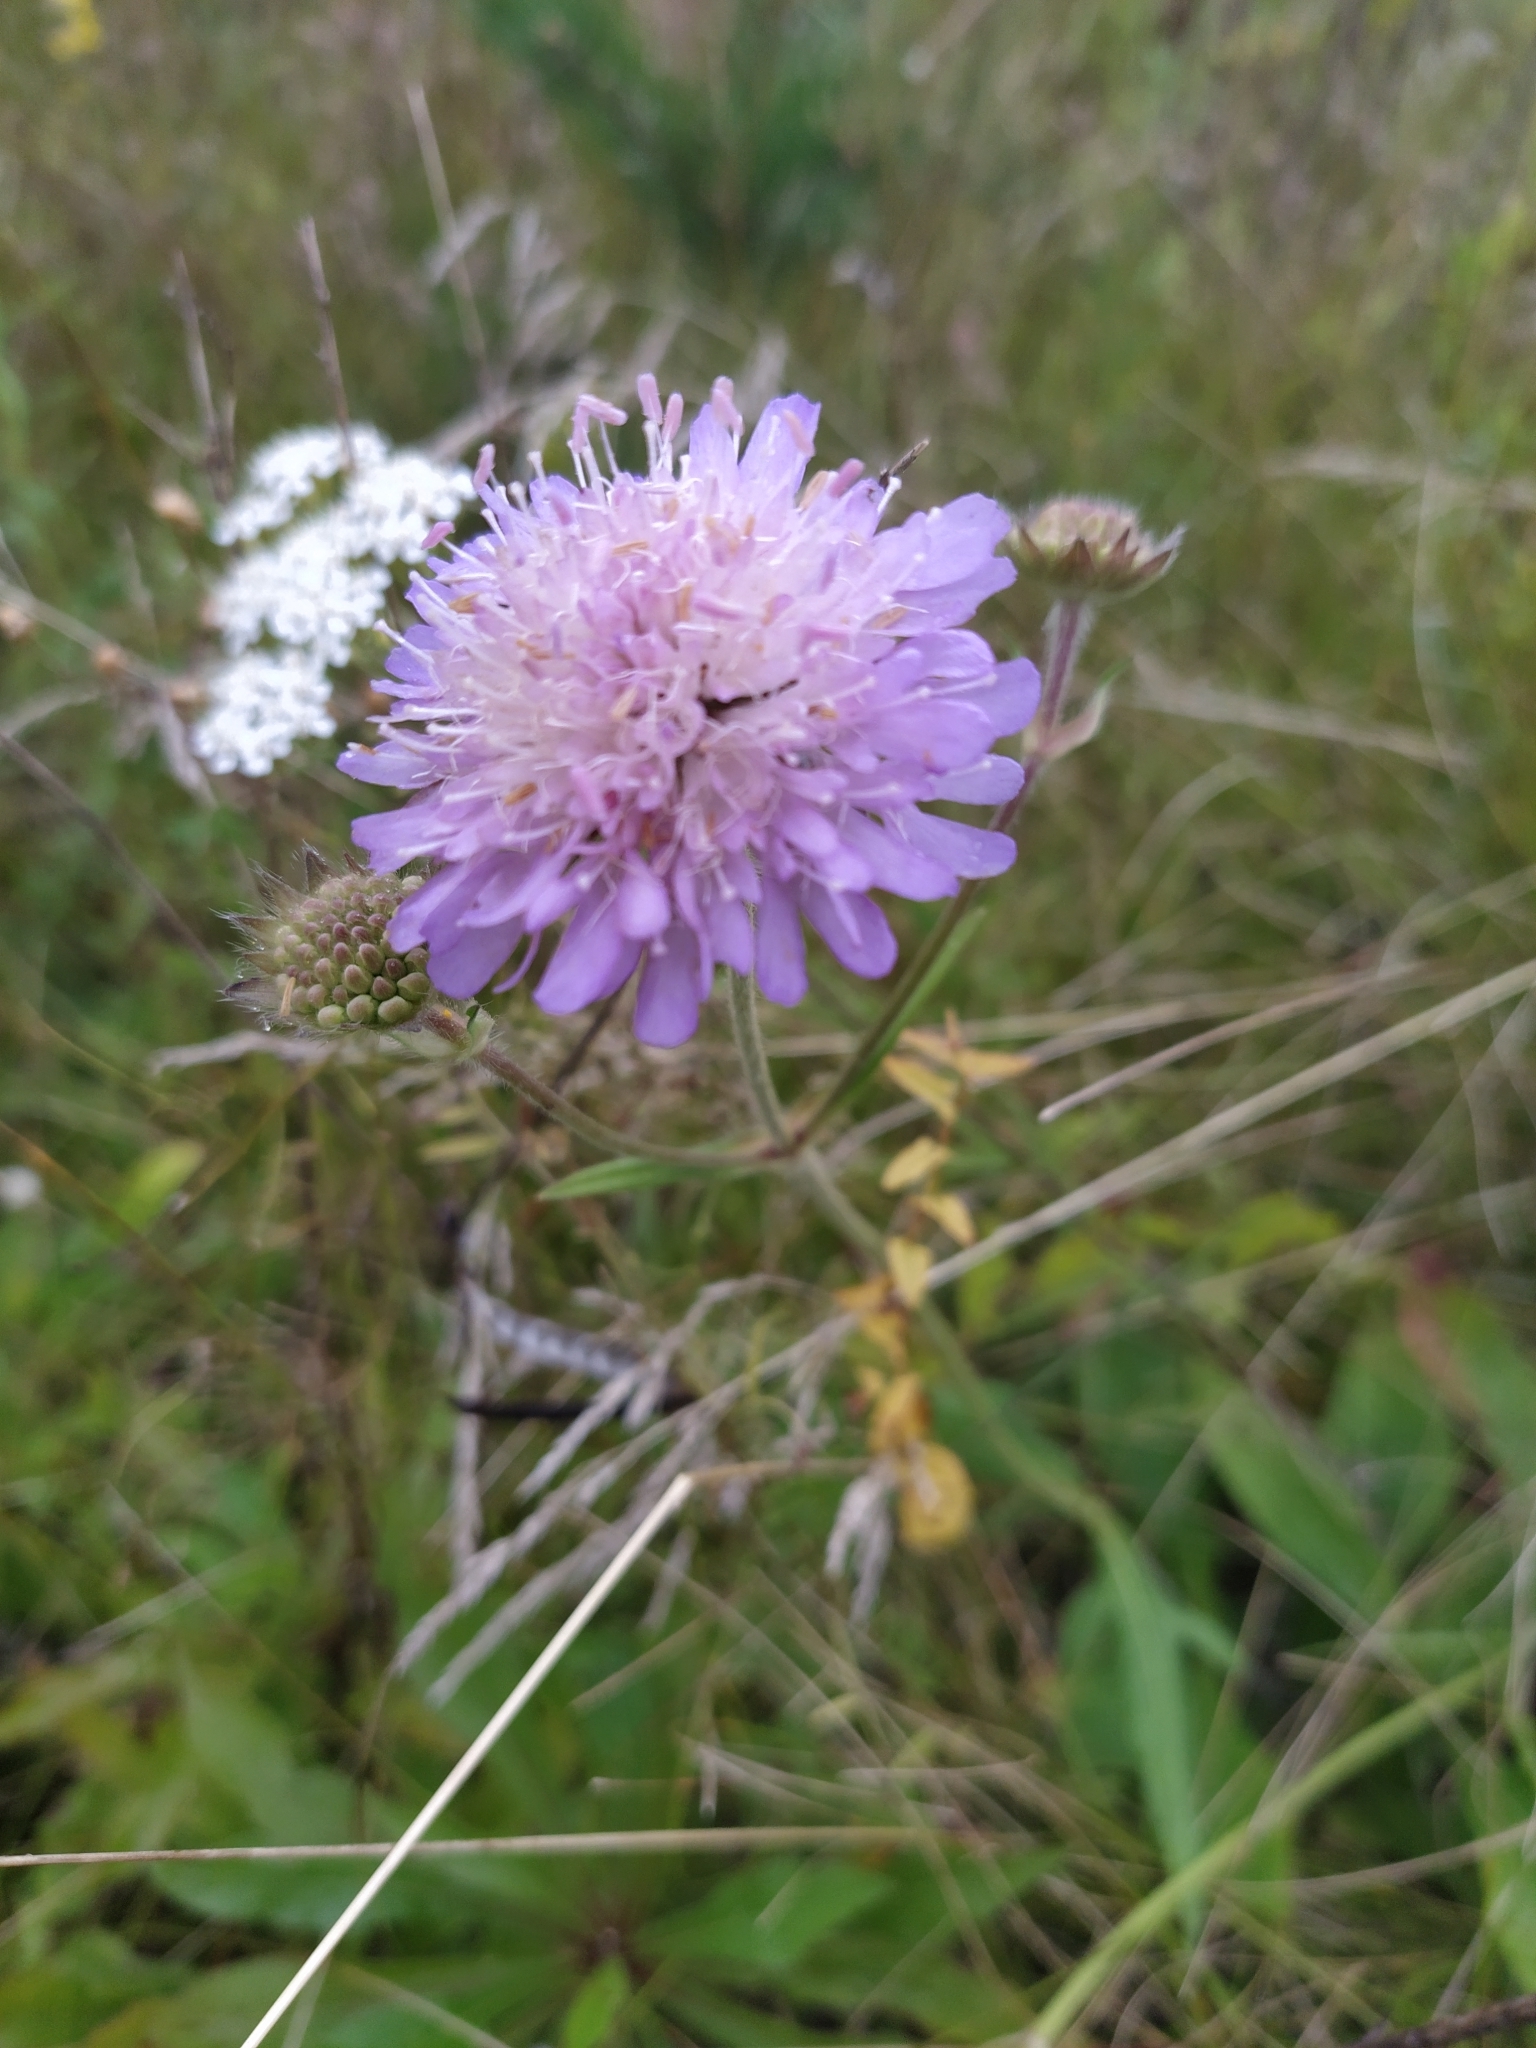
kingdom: Plantae
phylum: Tracheophyta
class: Magnoliopsida
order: Dipsacales
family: Caprifoliaceae
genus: Knautia
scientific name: Knautia arvensis
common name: Field scabiosa
